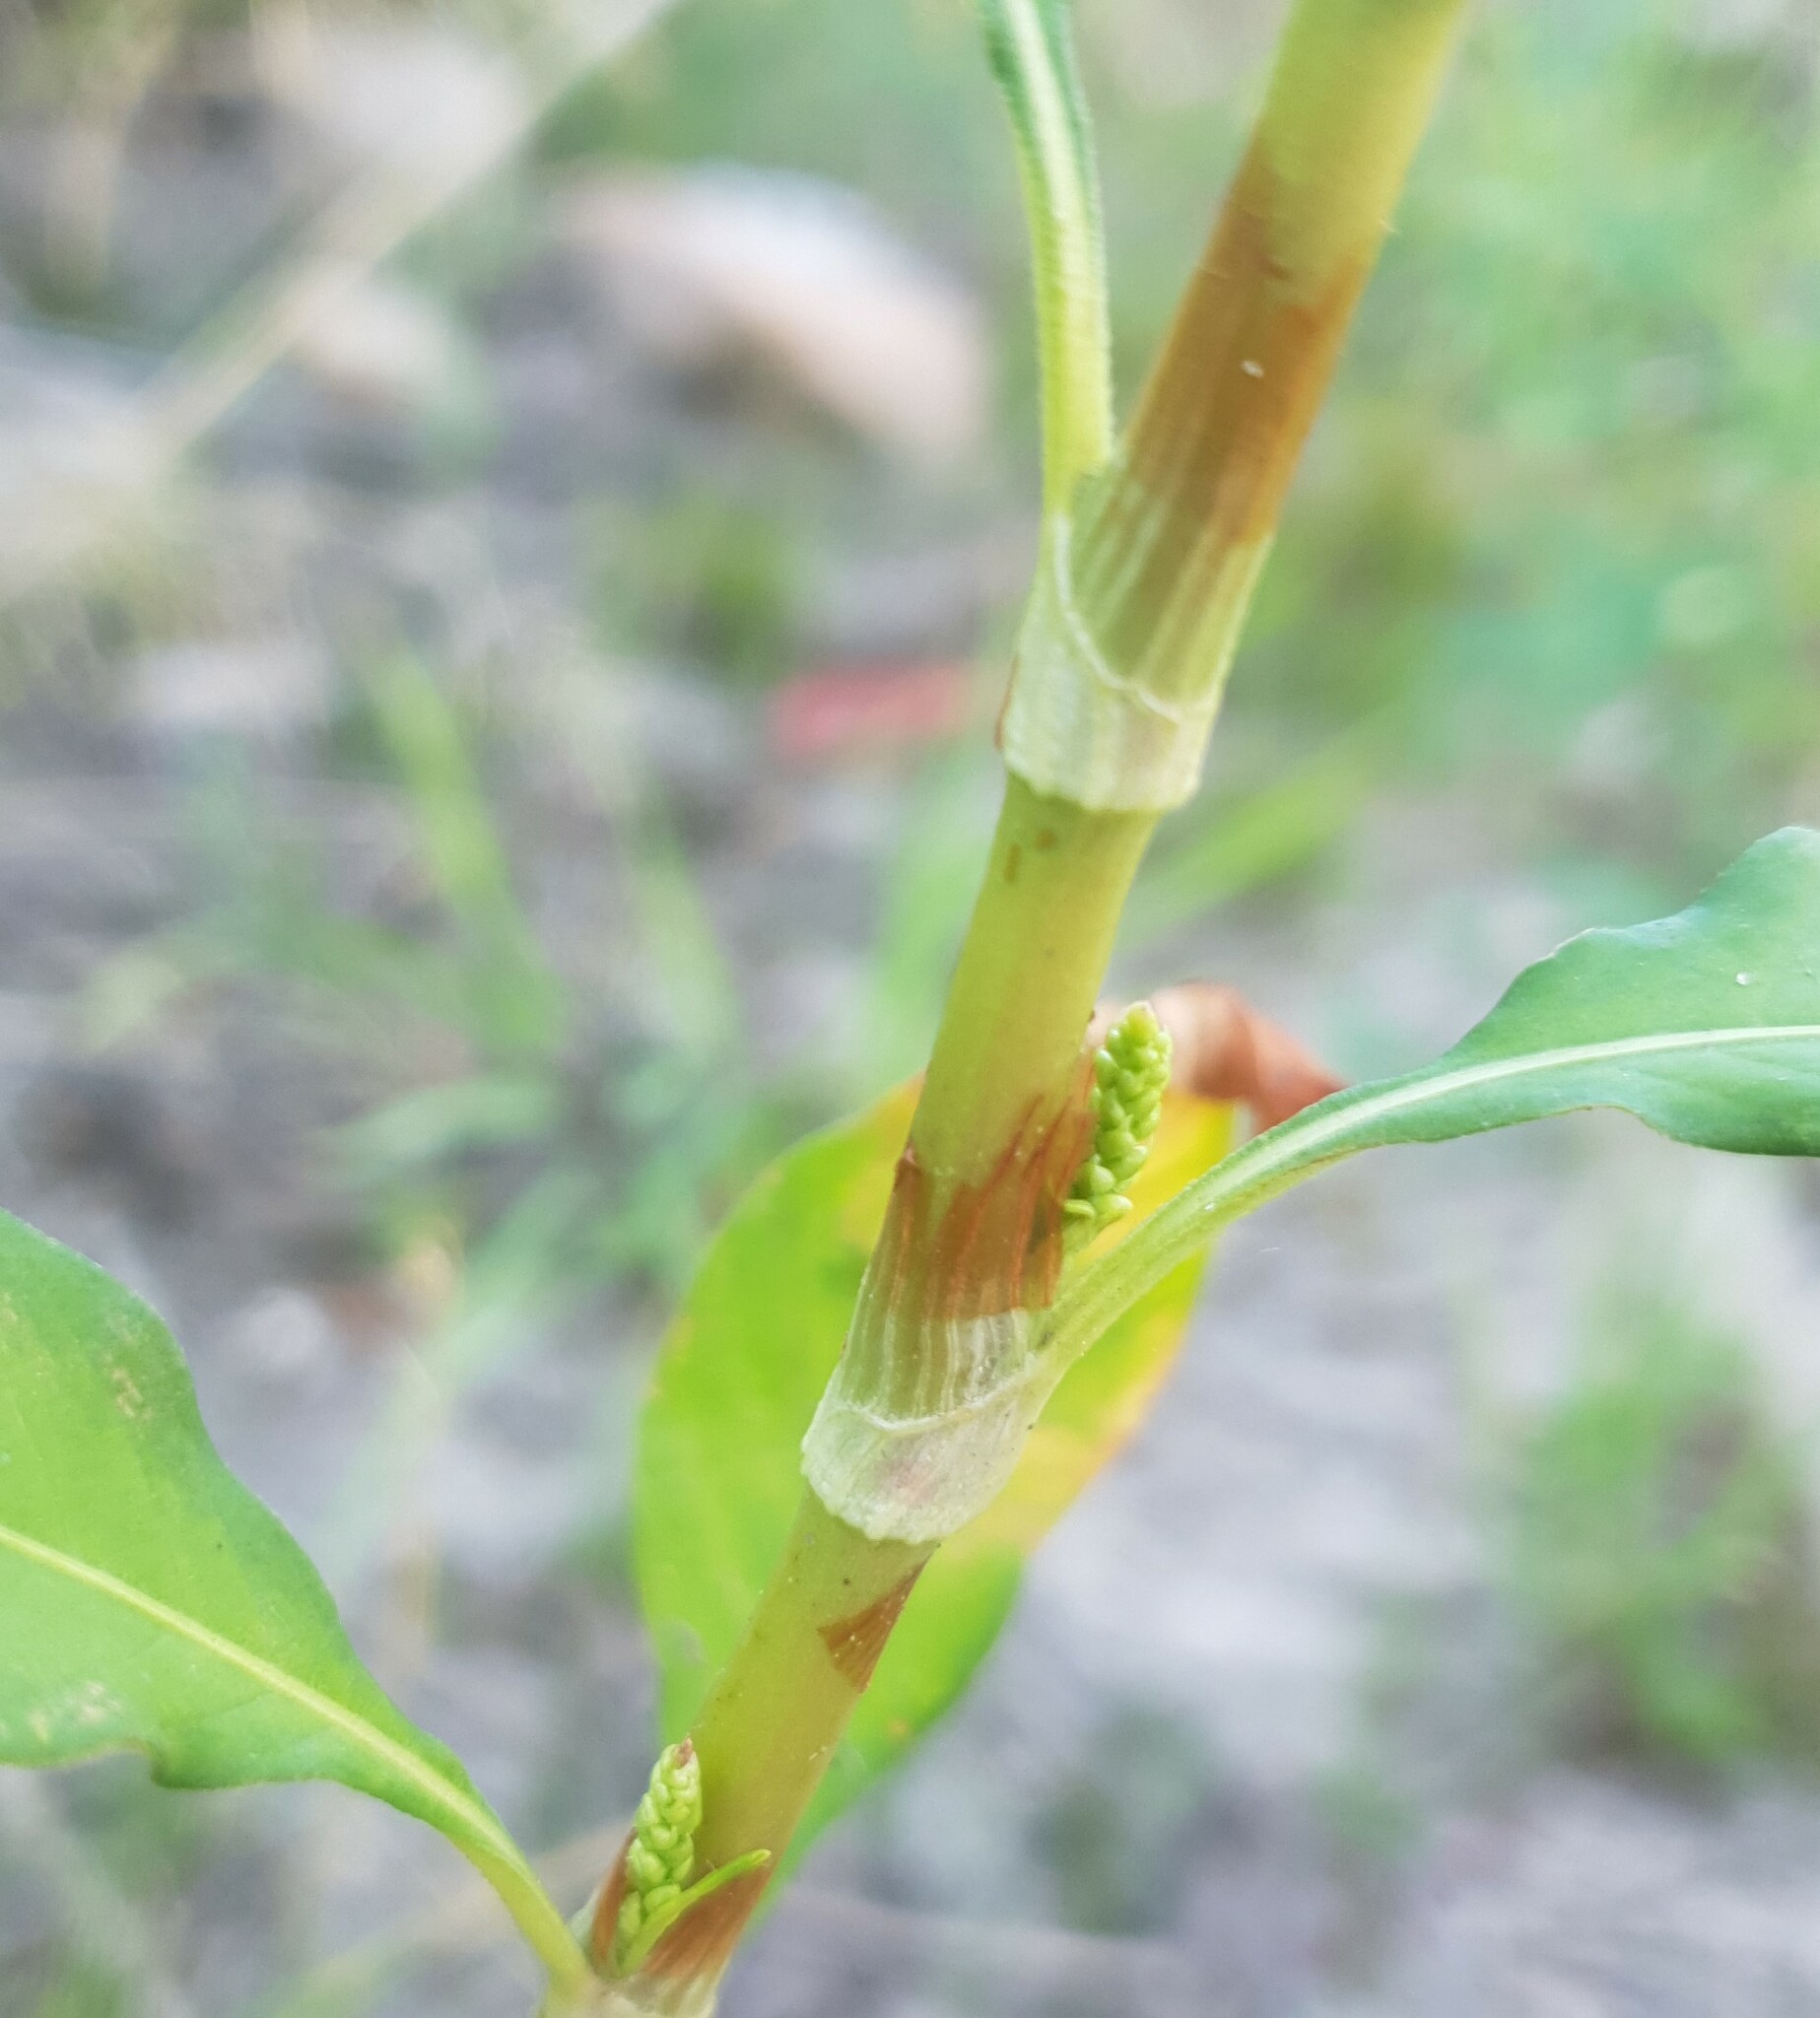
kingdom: Plantae
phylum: Tracheophyta
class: Magnoliopsida
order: Caryophyllales
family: Polygonaceae
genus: Persicaria
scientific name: Persicaria lapathifolia
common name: Curlytop knotweed
